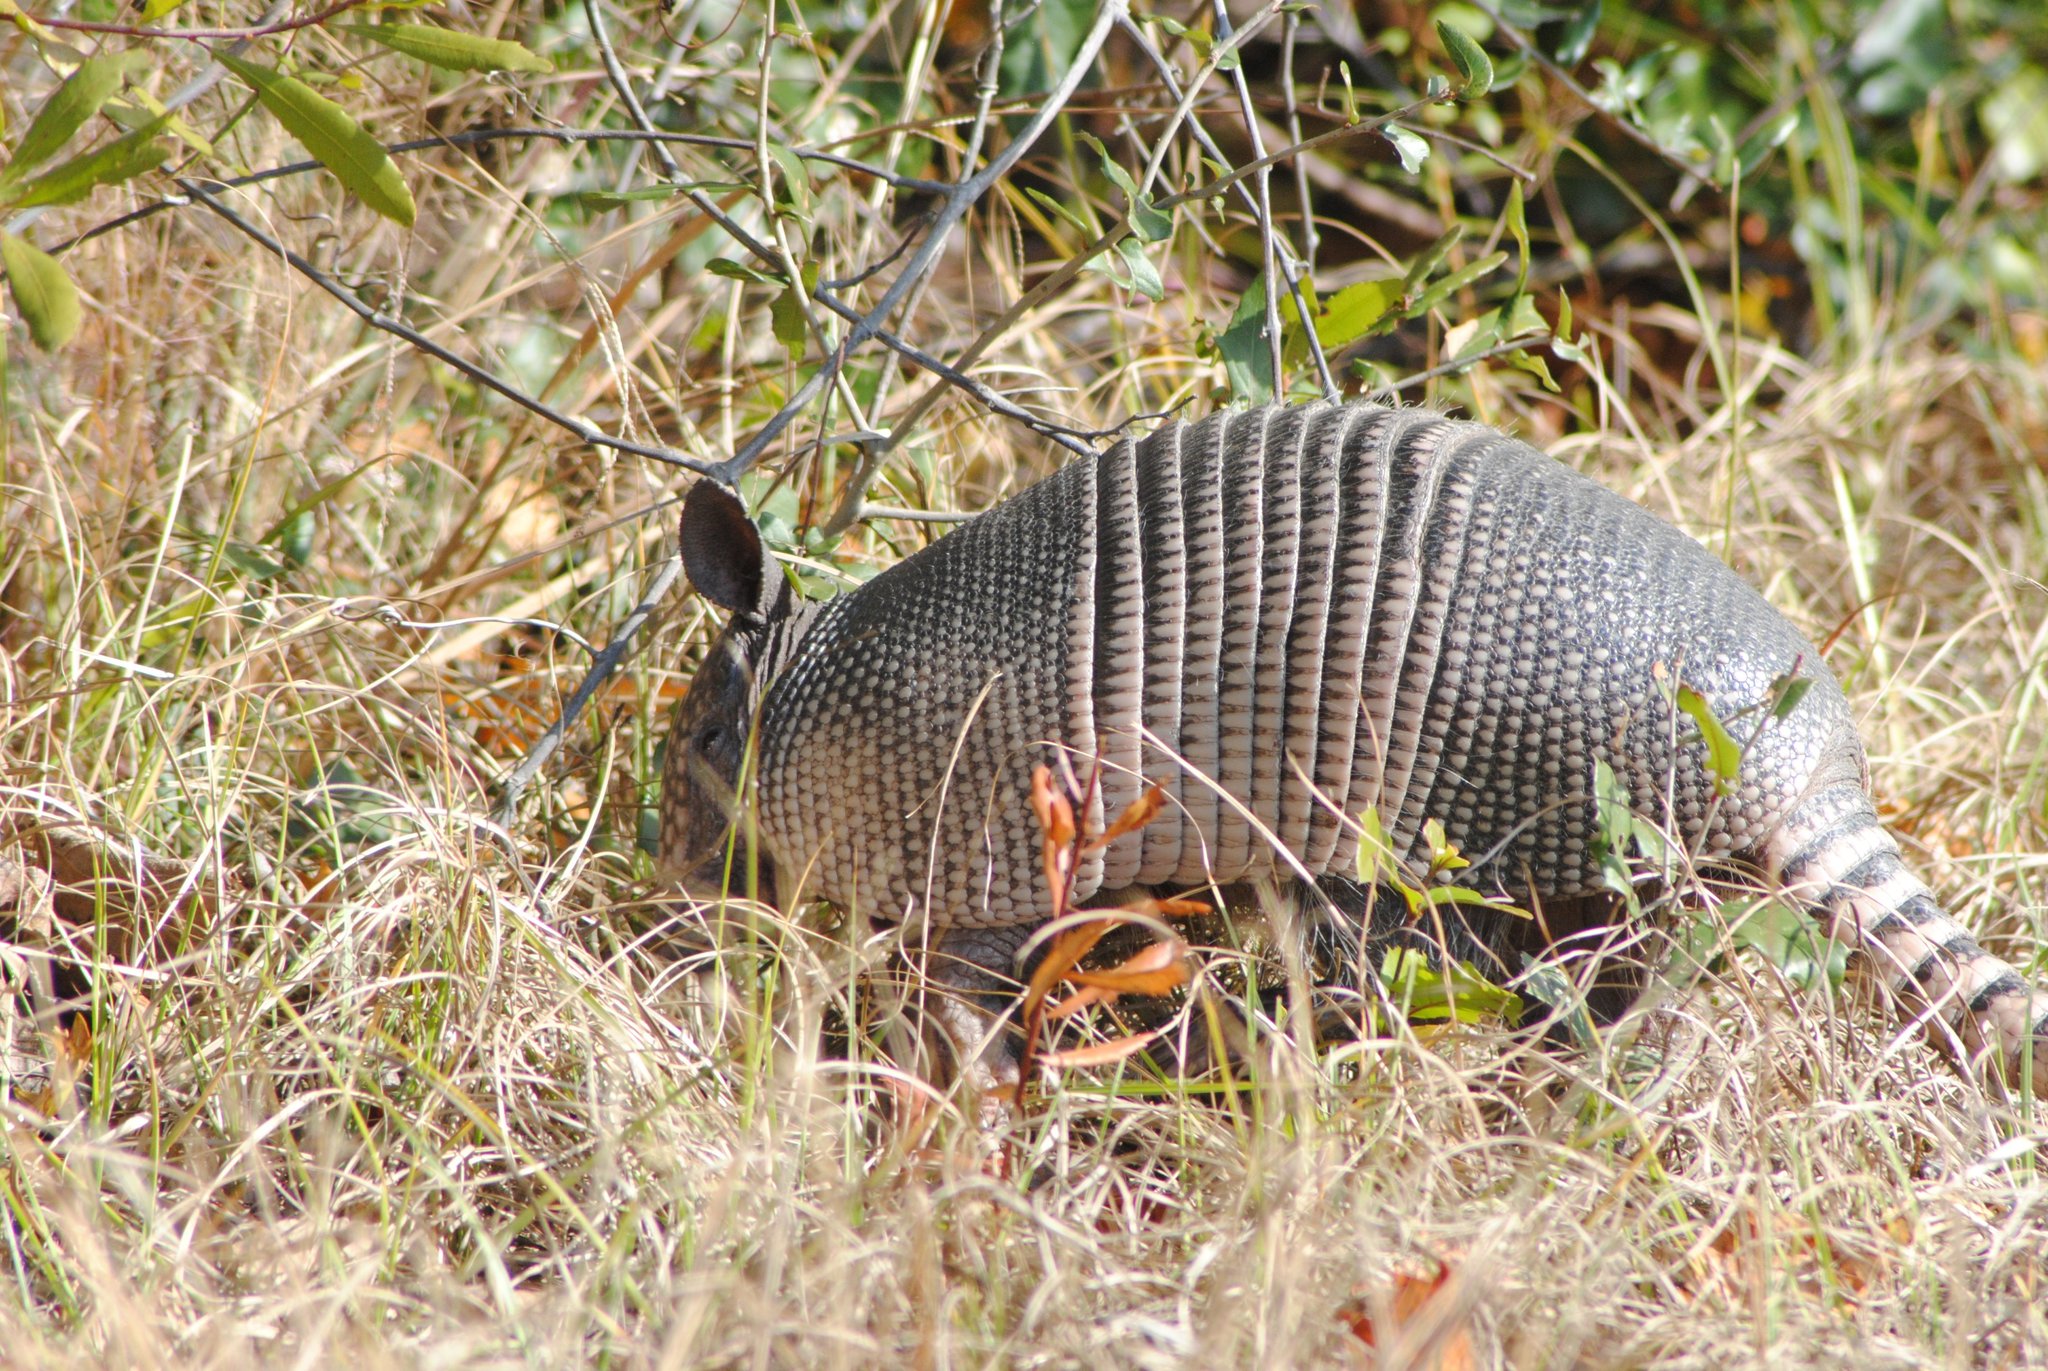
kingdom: Animalia
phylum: Chordata
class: Mammalia
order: Cingulata
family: Dasypodidae
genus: Dasypus
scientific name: Dasypus novemcinctus
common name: Nine-banded armadillo
